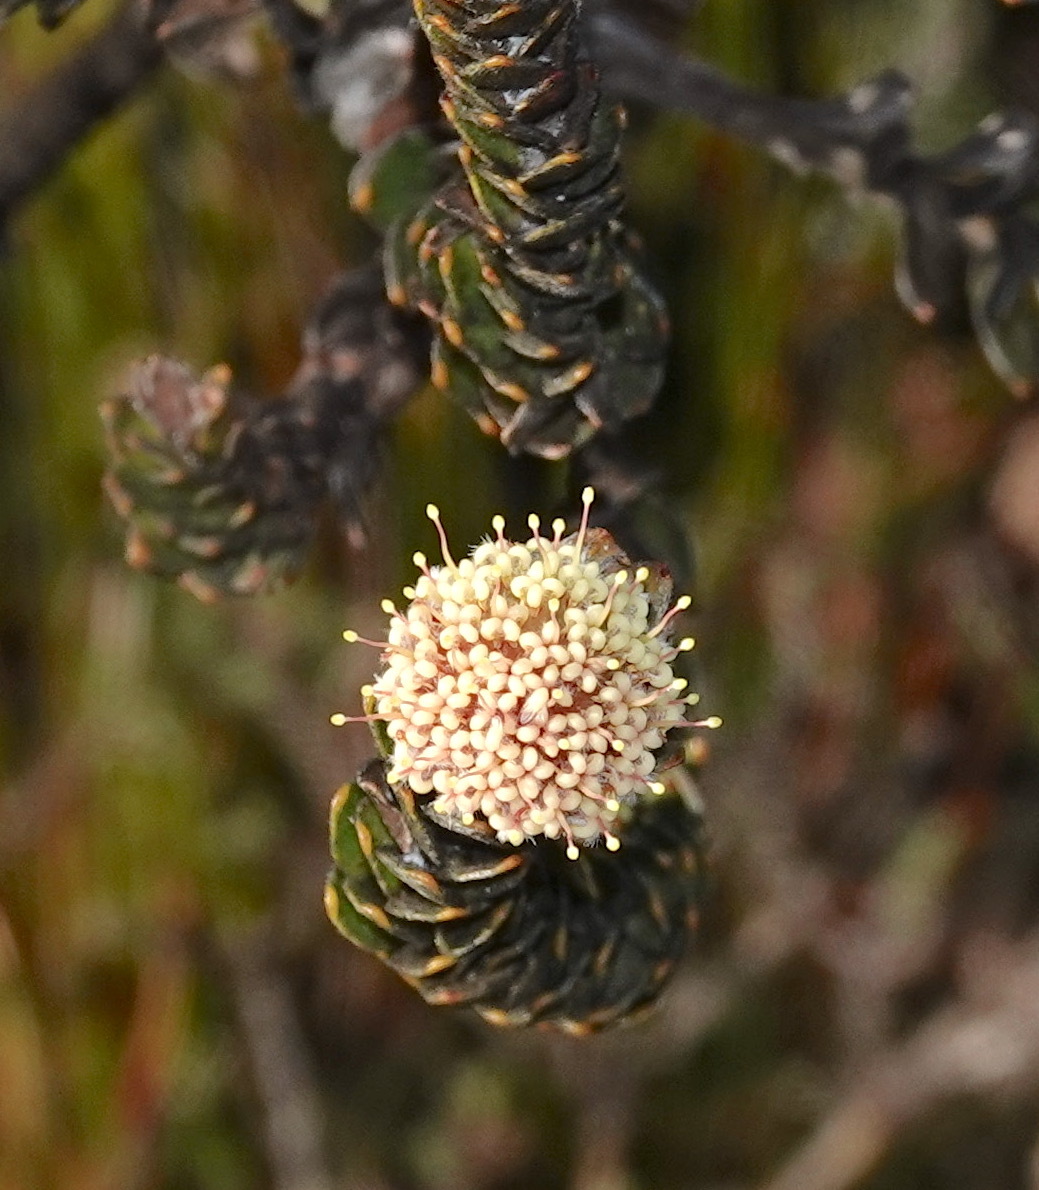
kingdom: Plantae
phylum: Tracheophyta
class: Magnoliopsida
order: Proteales
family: Proteaceae
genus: Leucospermum
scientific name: Leucospermum truncatulum
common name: Oval-leaf pincushion
